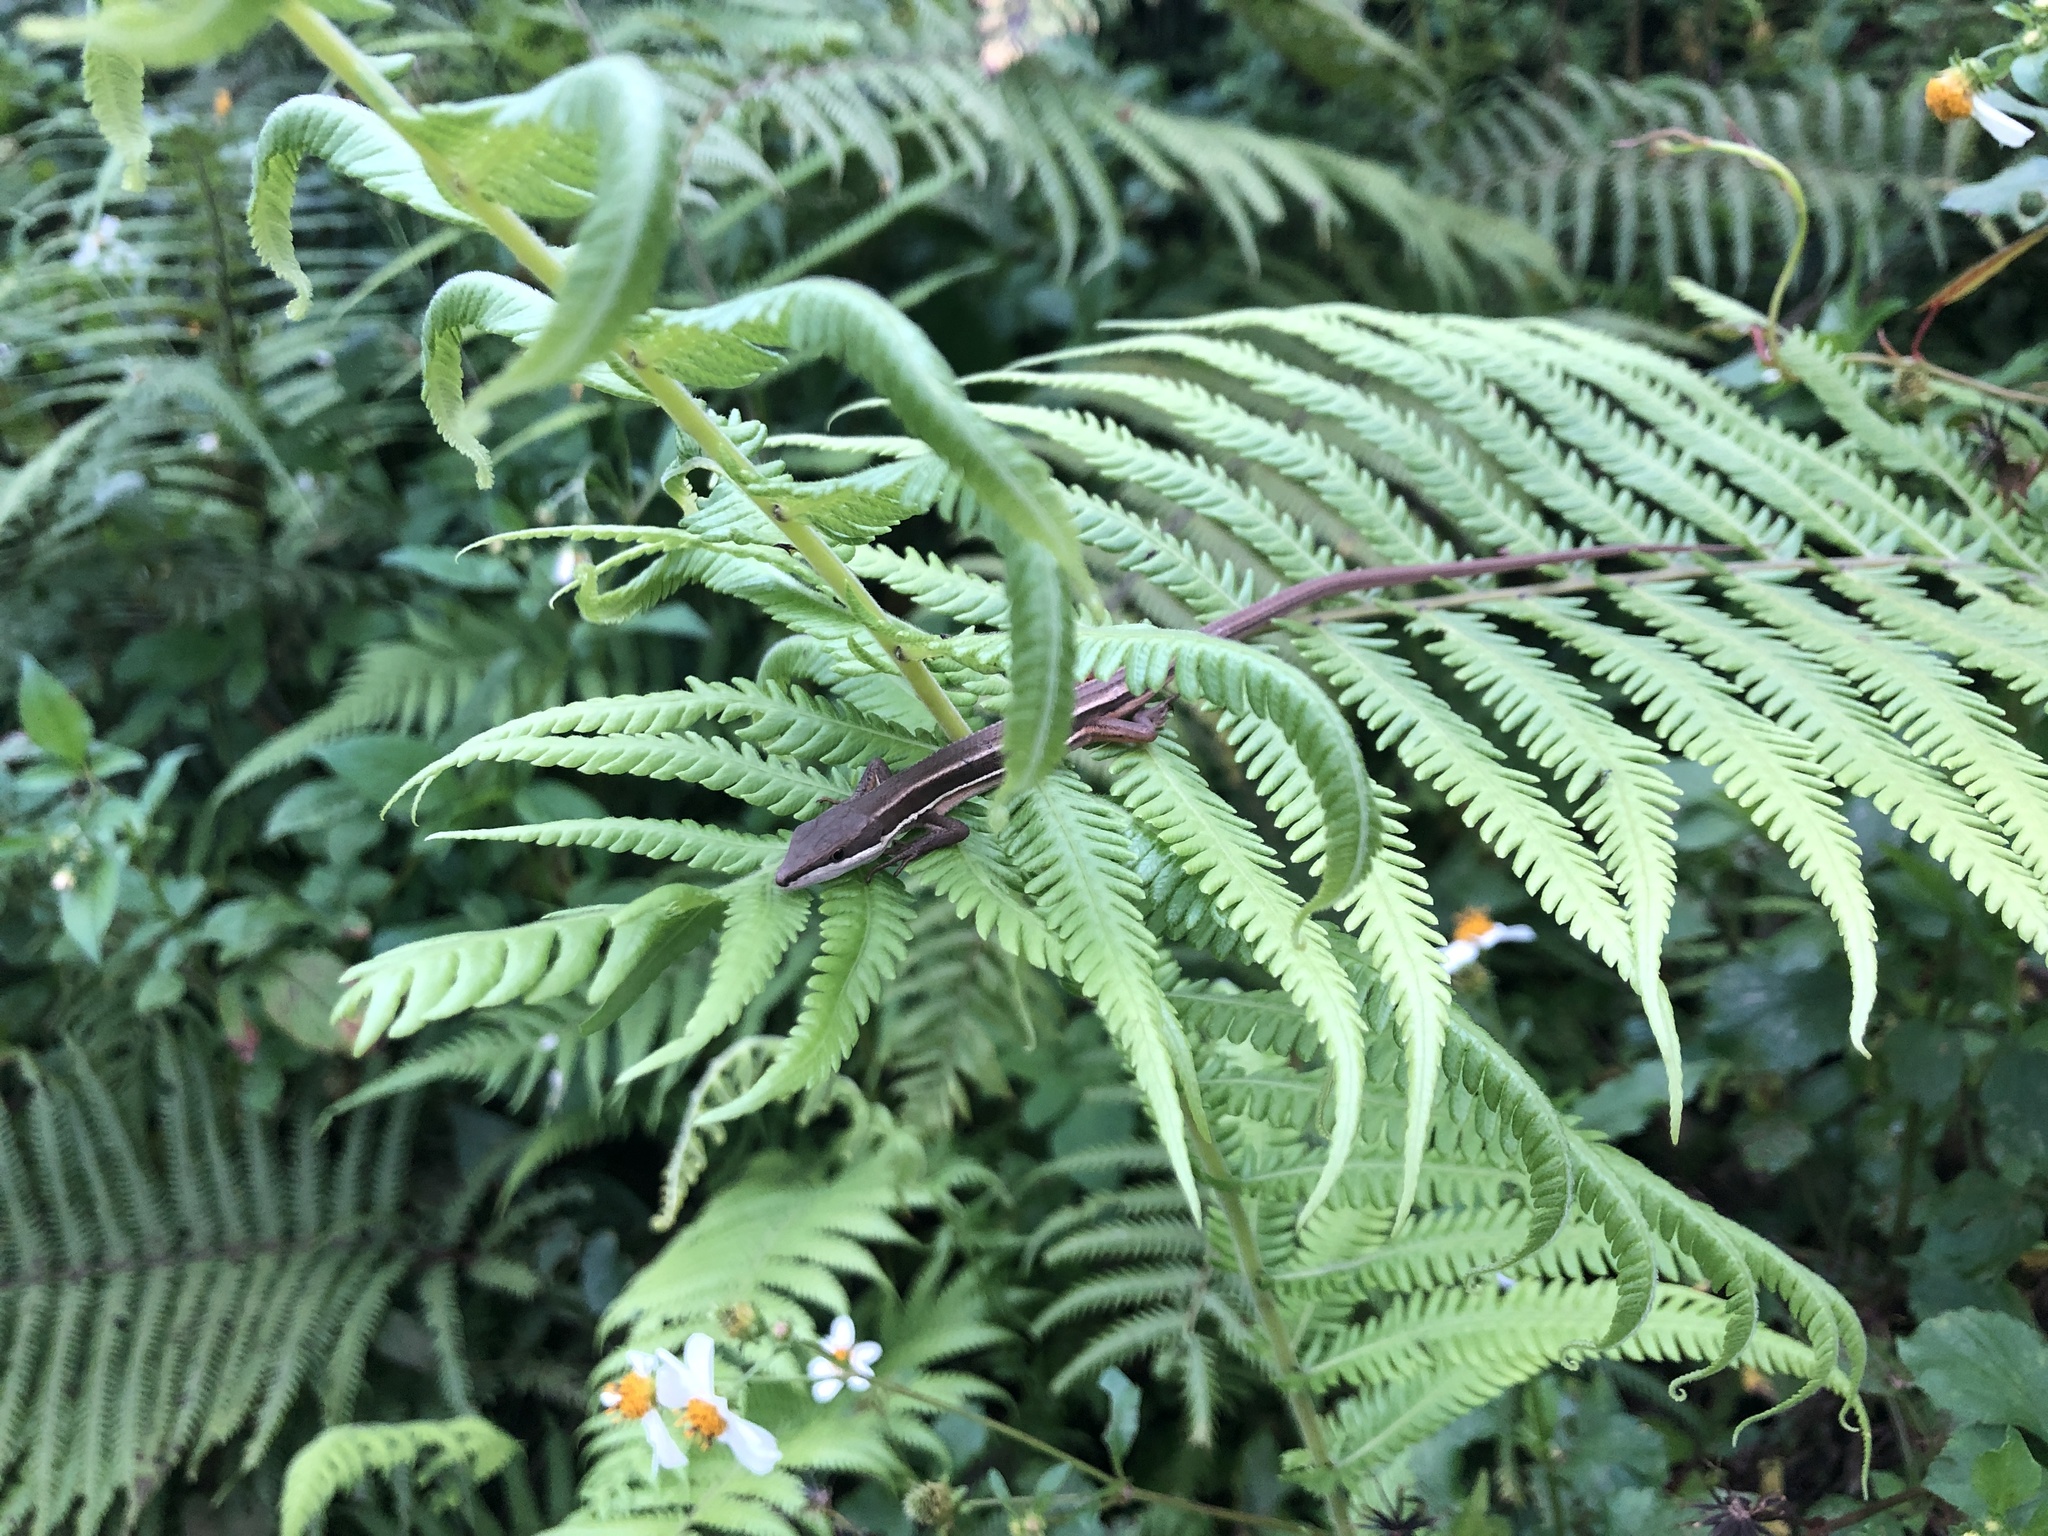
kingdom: Animalia
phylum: Chordata
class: Squamata
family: Lacertidae
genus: Takydromus
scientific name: Takydromus formosanus
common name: Formosa grass lizard
